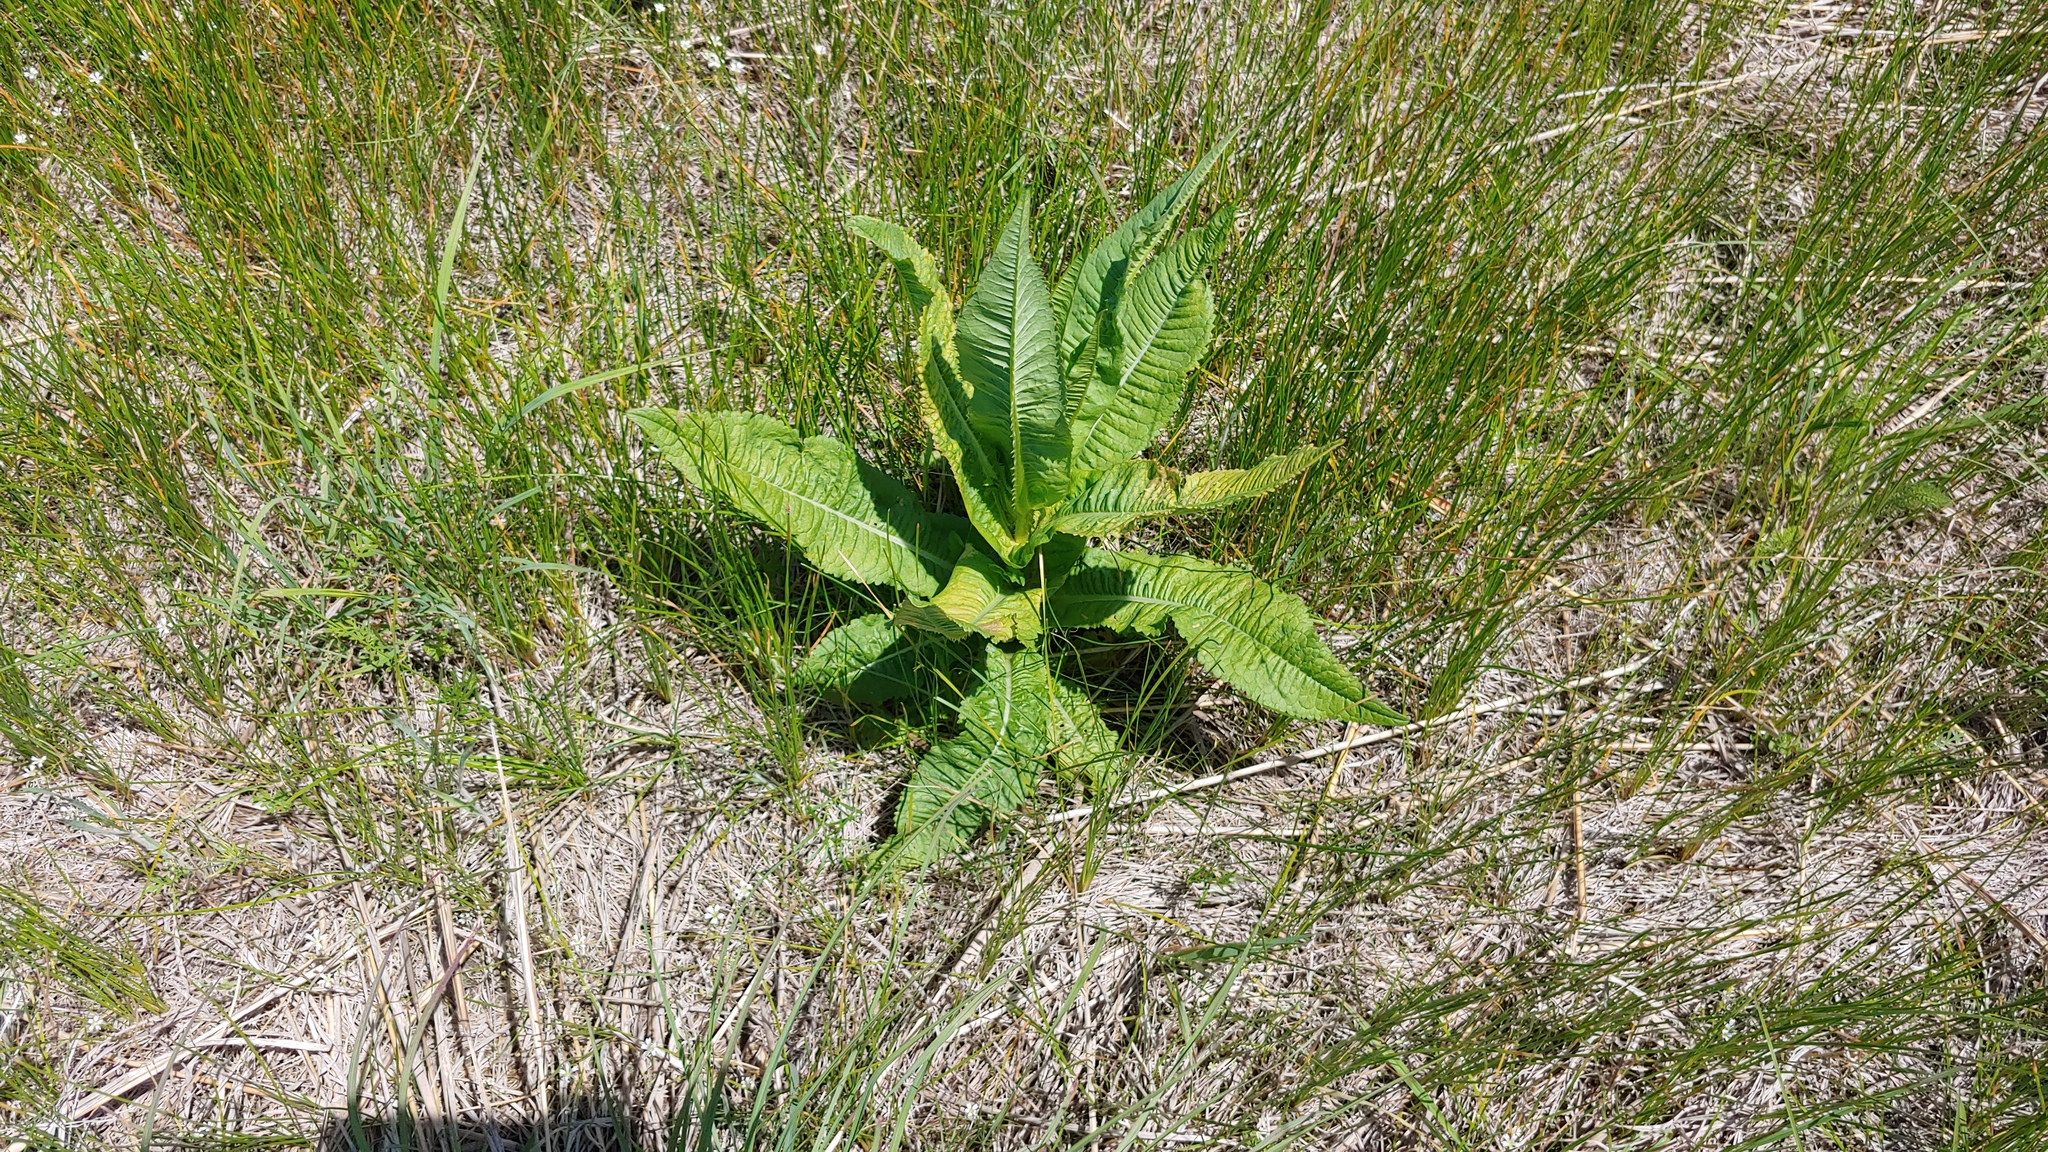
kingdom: Plantae
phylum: Tracheophyta
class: Magnoliopsida
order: Dipsacales
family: Caprifoliaceae
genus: Dipsacus
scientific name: Dipsacus fullonum
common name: Teasel
